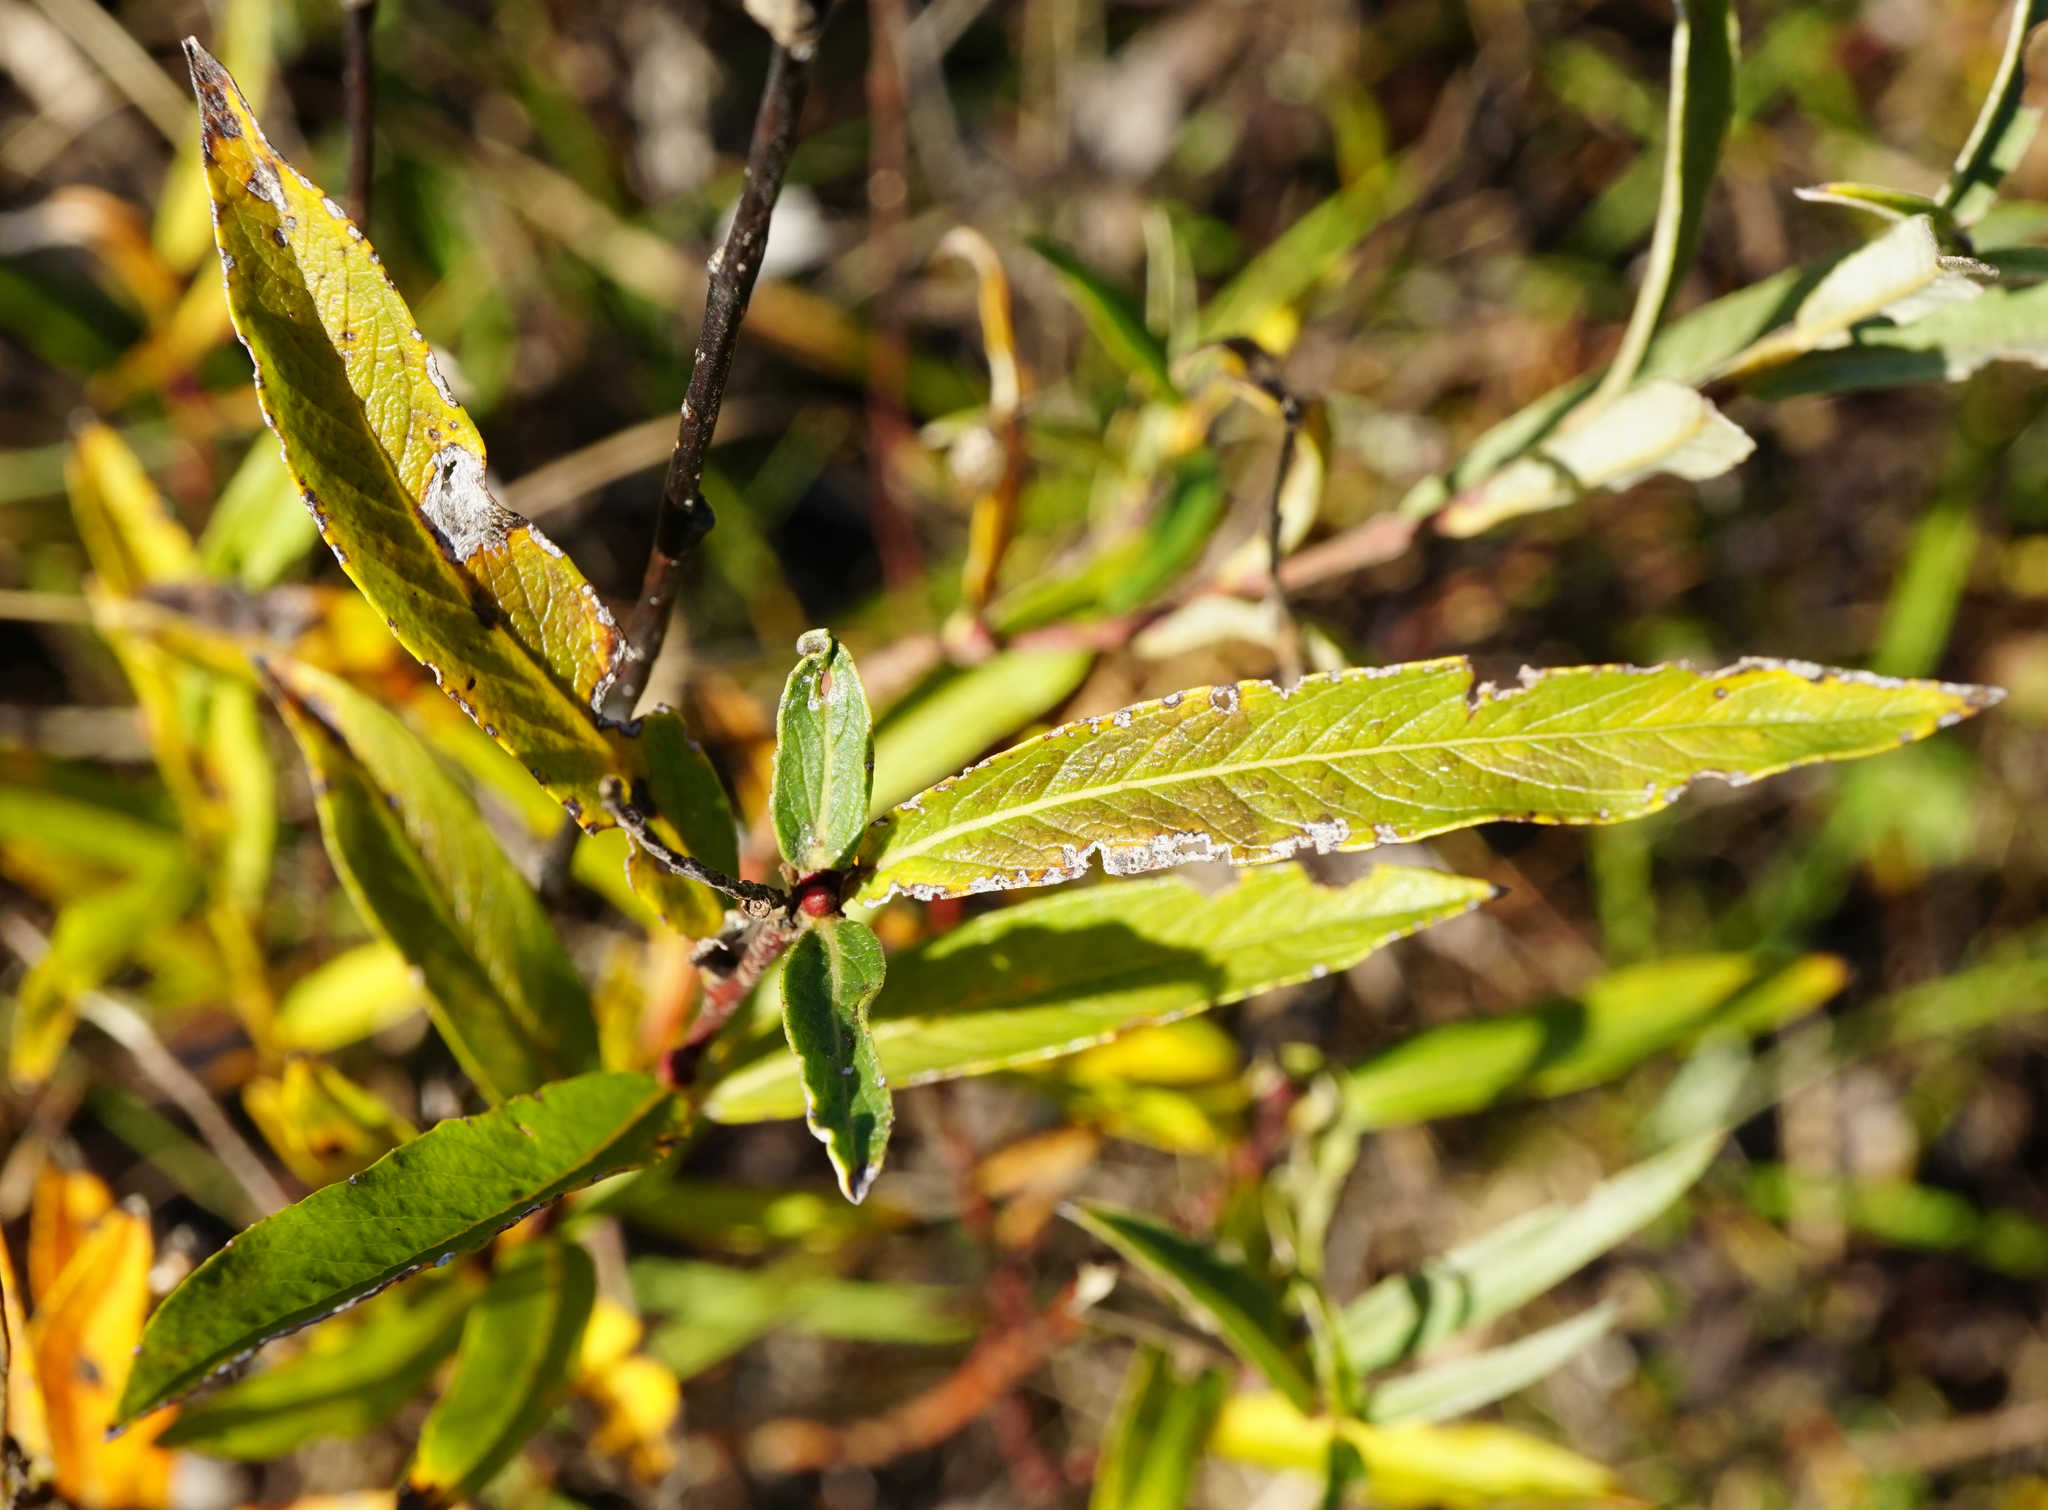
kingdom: Plantae
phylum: Tracheophyta
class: Magnoliopsida
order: Malpighiales
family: Salicaceae
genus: Salix
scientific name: Salix rosmarinifolia
